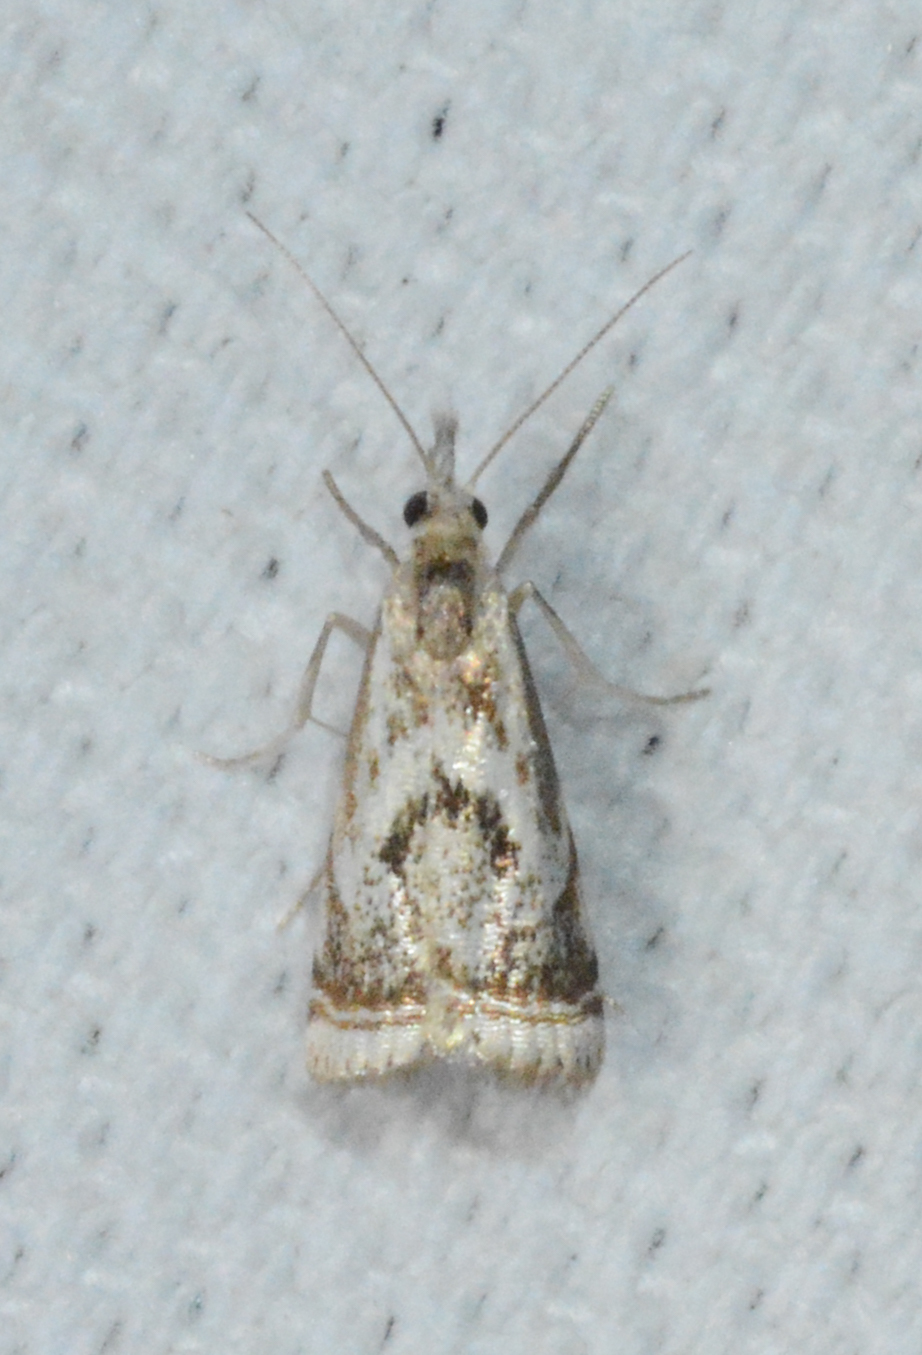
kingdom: Animalia
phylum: Arthropoda
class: Insecta
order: Lepidoptera
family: Crambidae
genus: Microcrambus
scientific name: Microcrambus elegans
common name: Elegant grass-veneer
